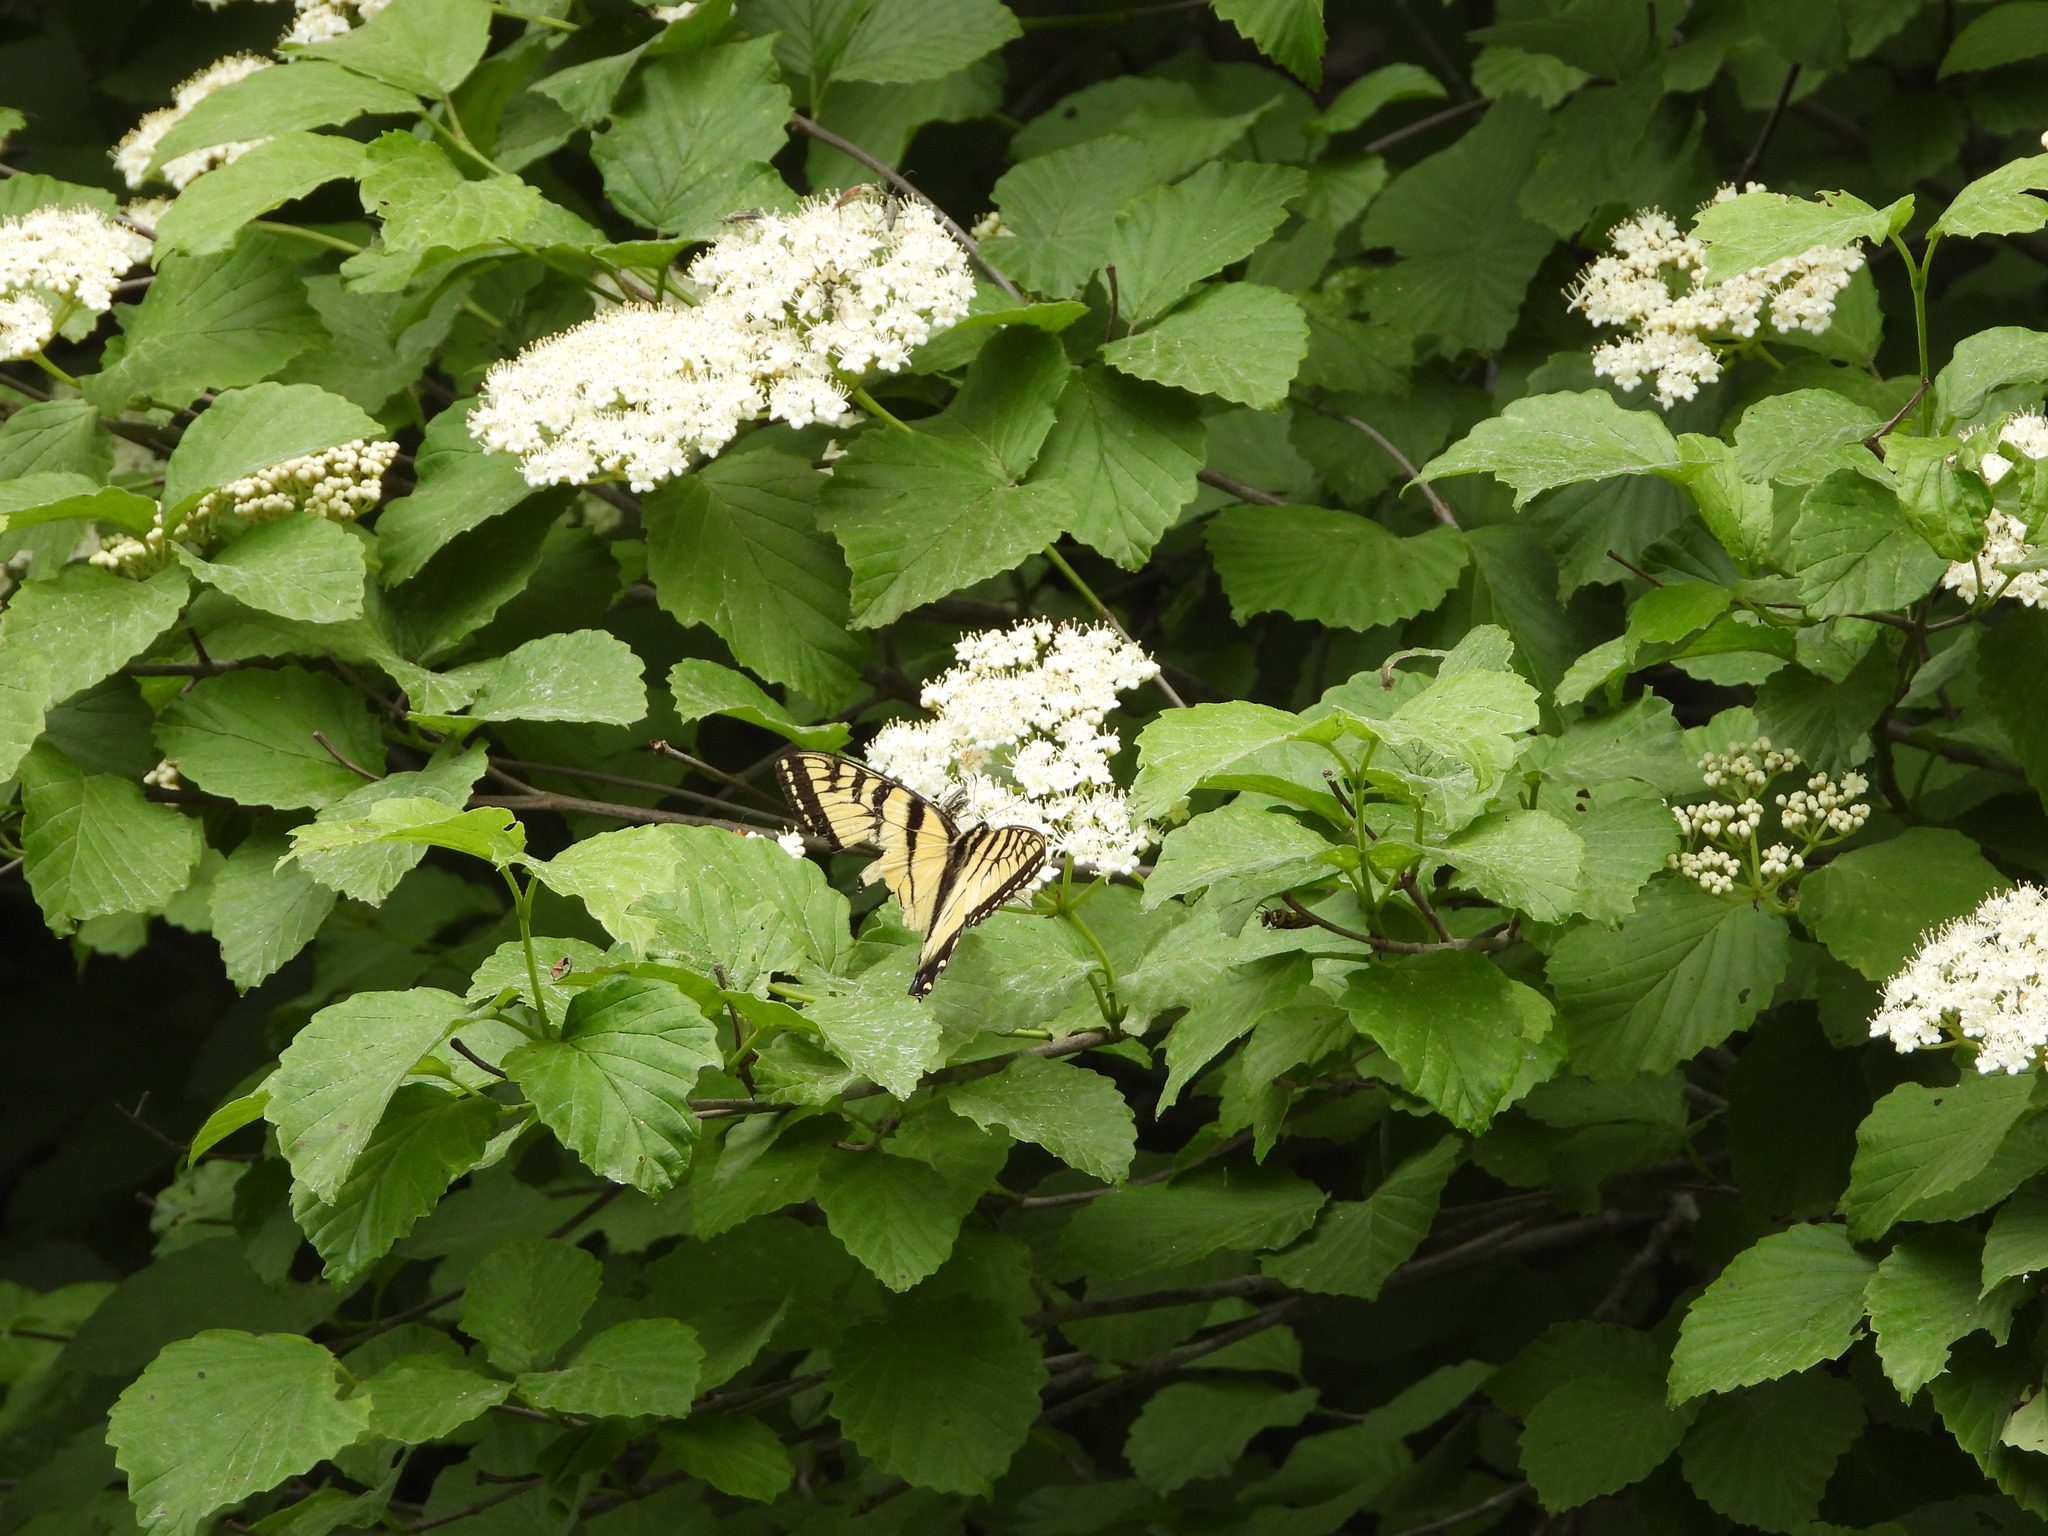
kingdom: Animalia
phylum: Arthropoda
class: Insecta
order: Lepidoptera
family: Papilionidae
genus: Papilio
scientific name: Papilio glaucus
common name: Tiger swallowtail
